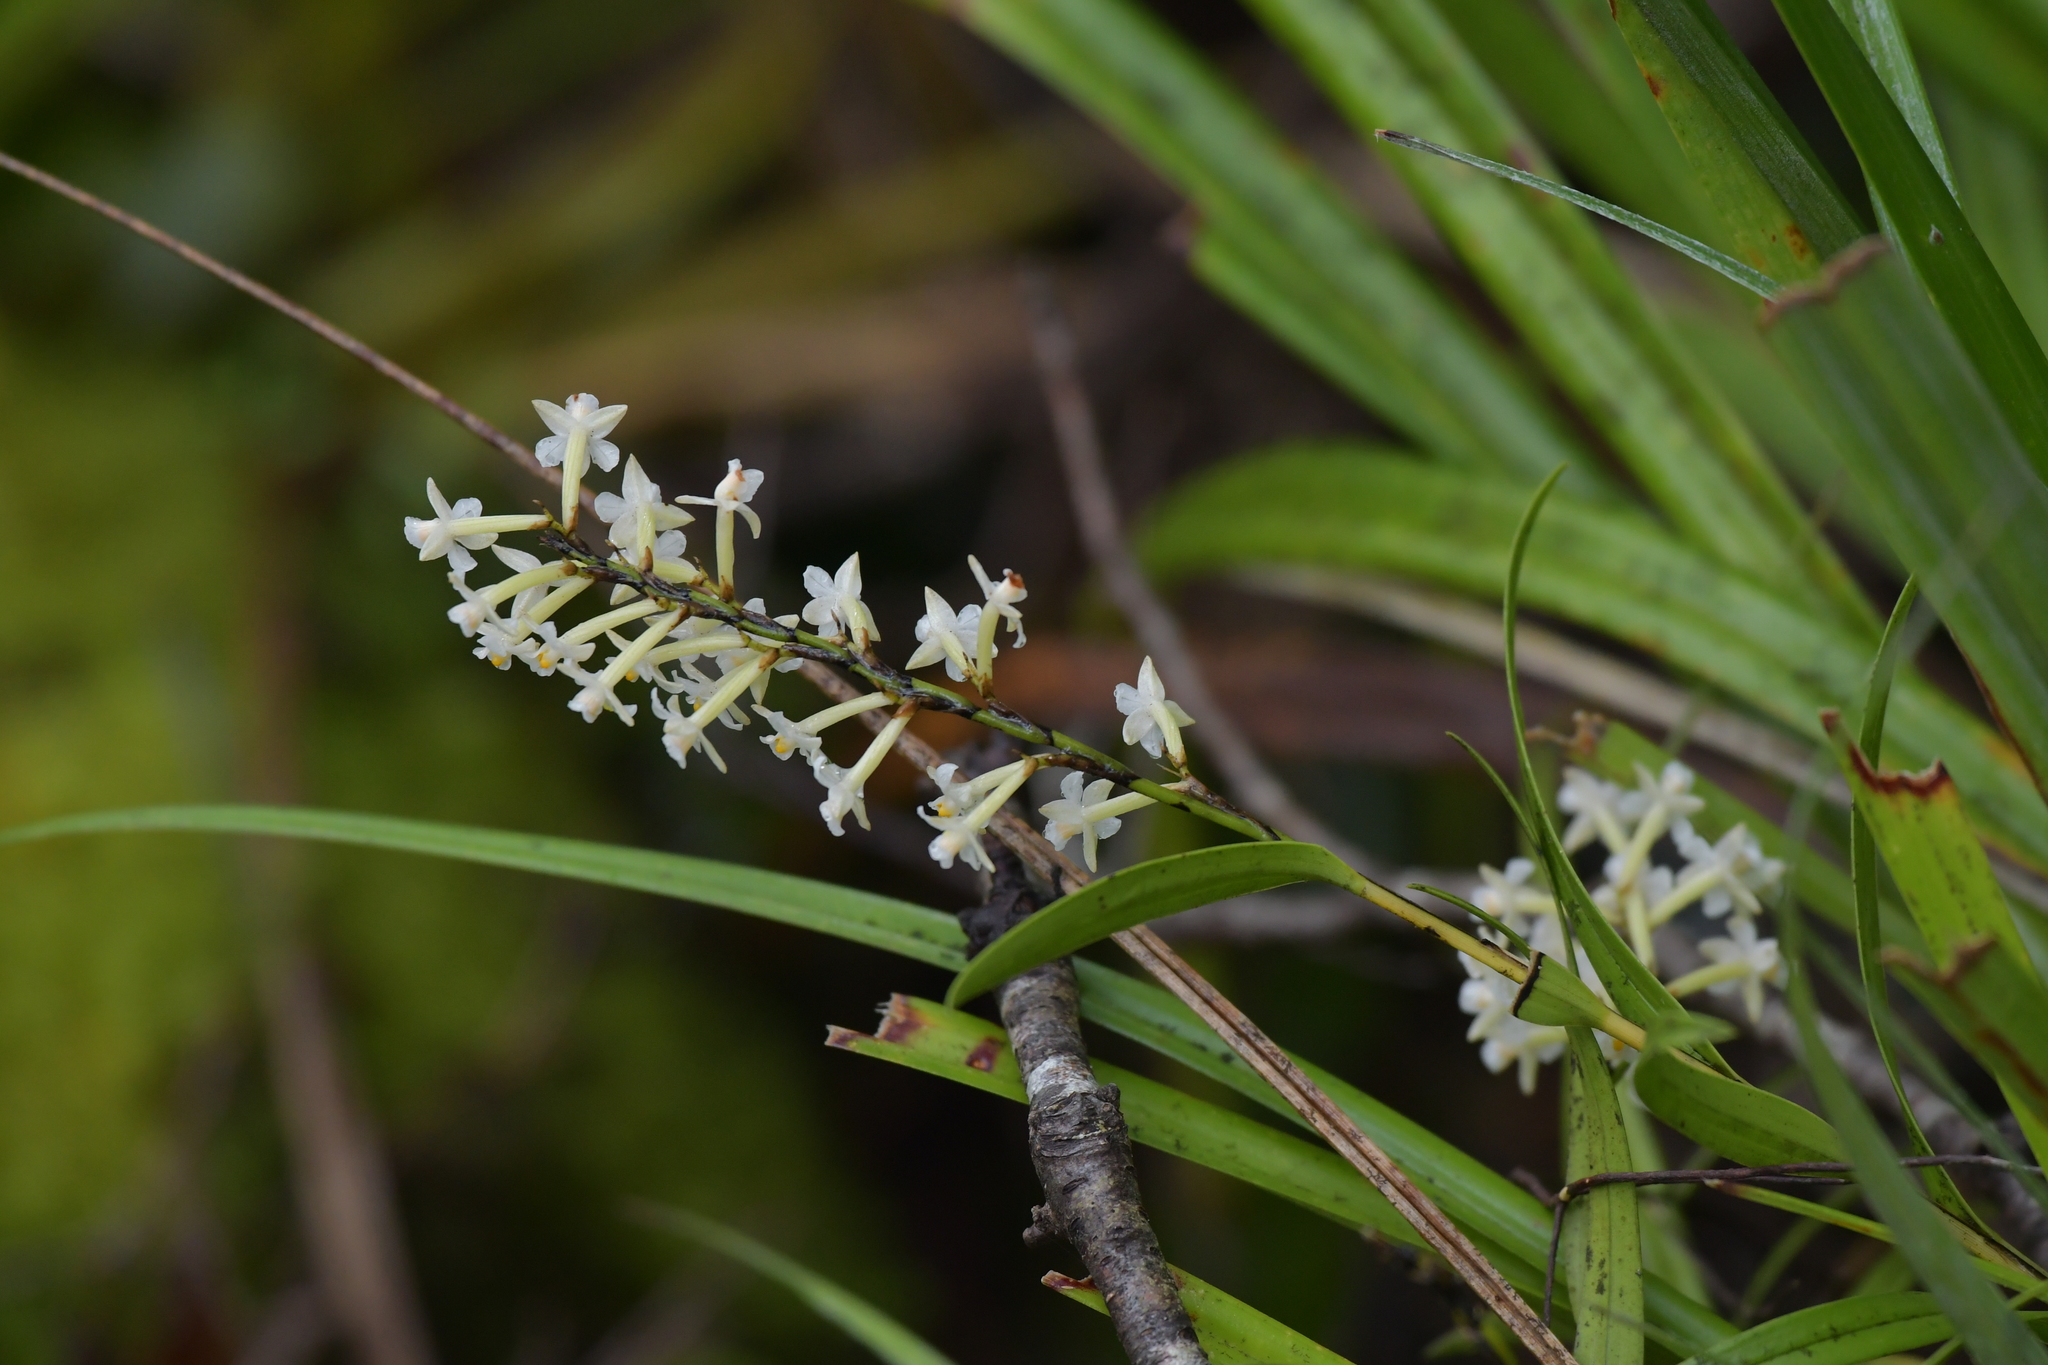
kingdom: Plantae
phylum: Tracheophyta
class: Liliopsida
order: Asparagales
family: Orchidaceae
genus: Earina
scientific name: Earina autumnalis
